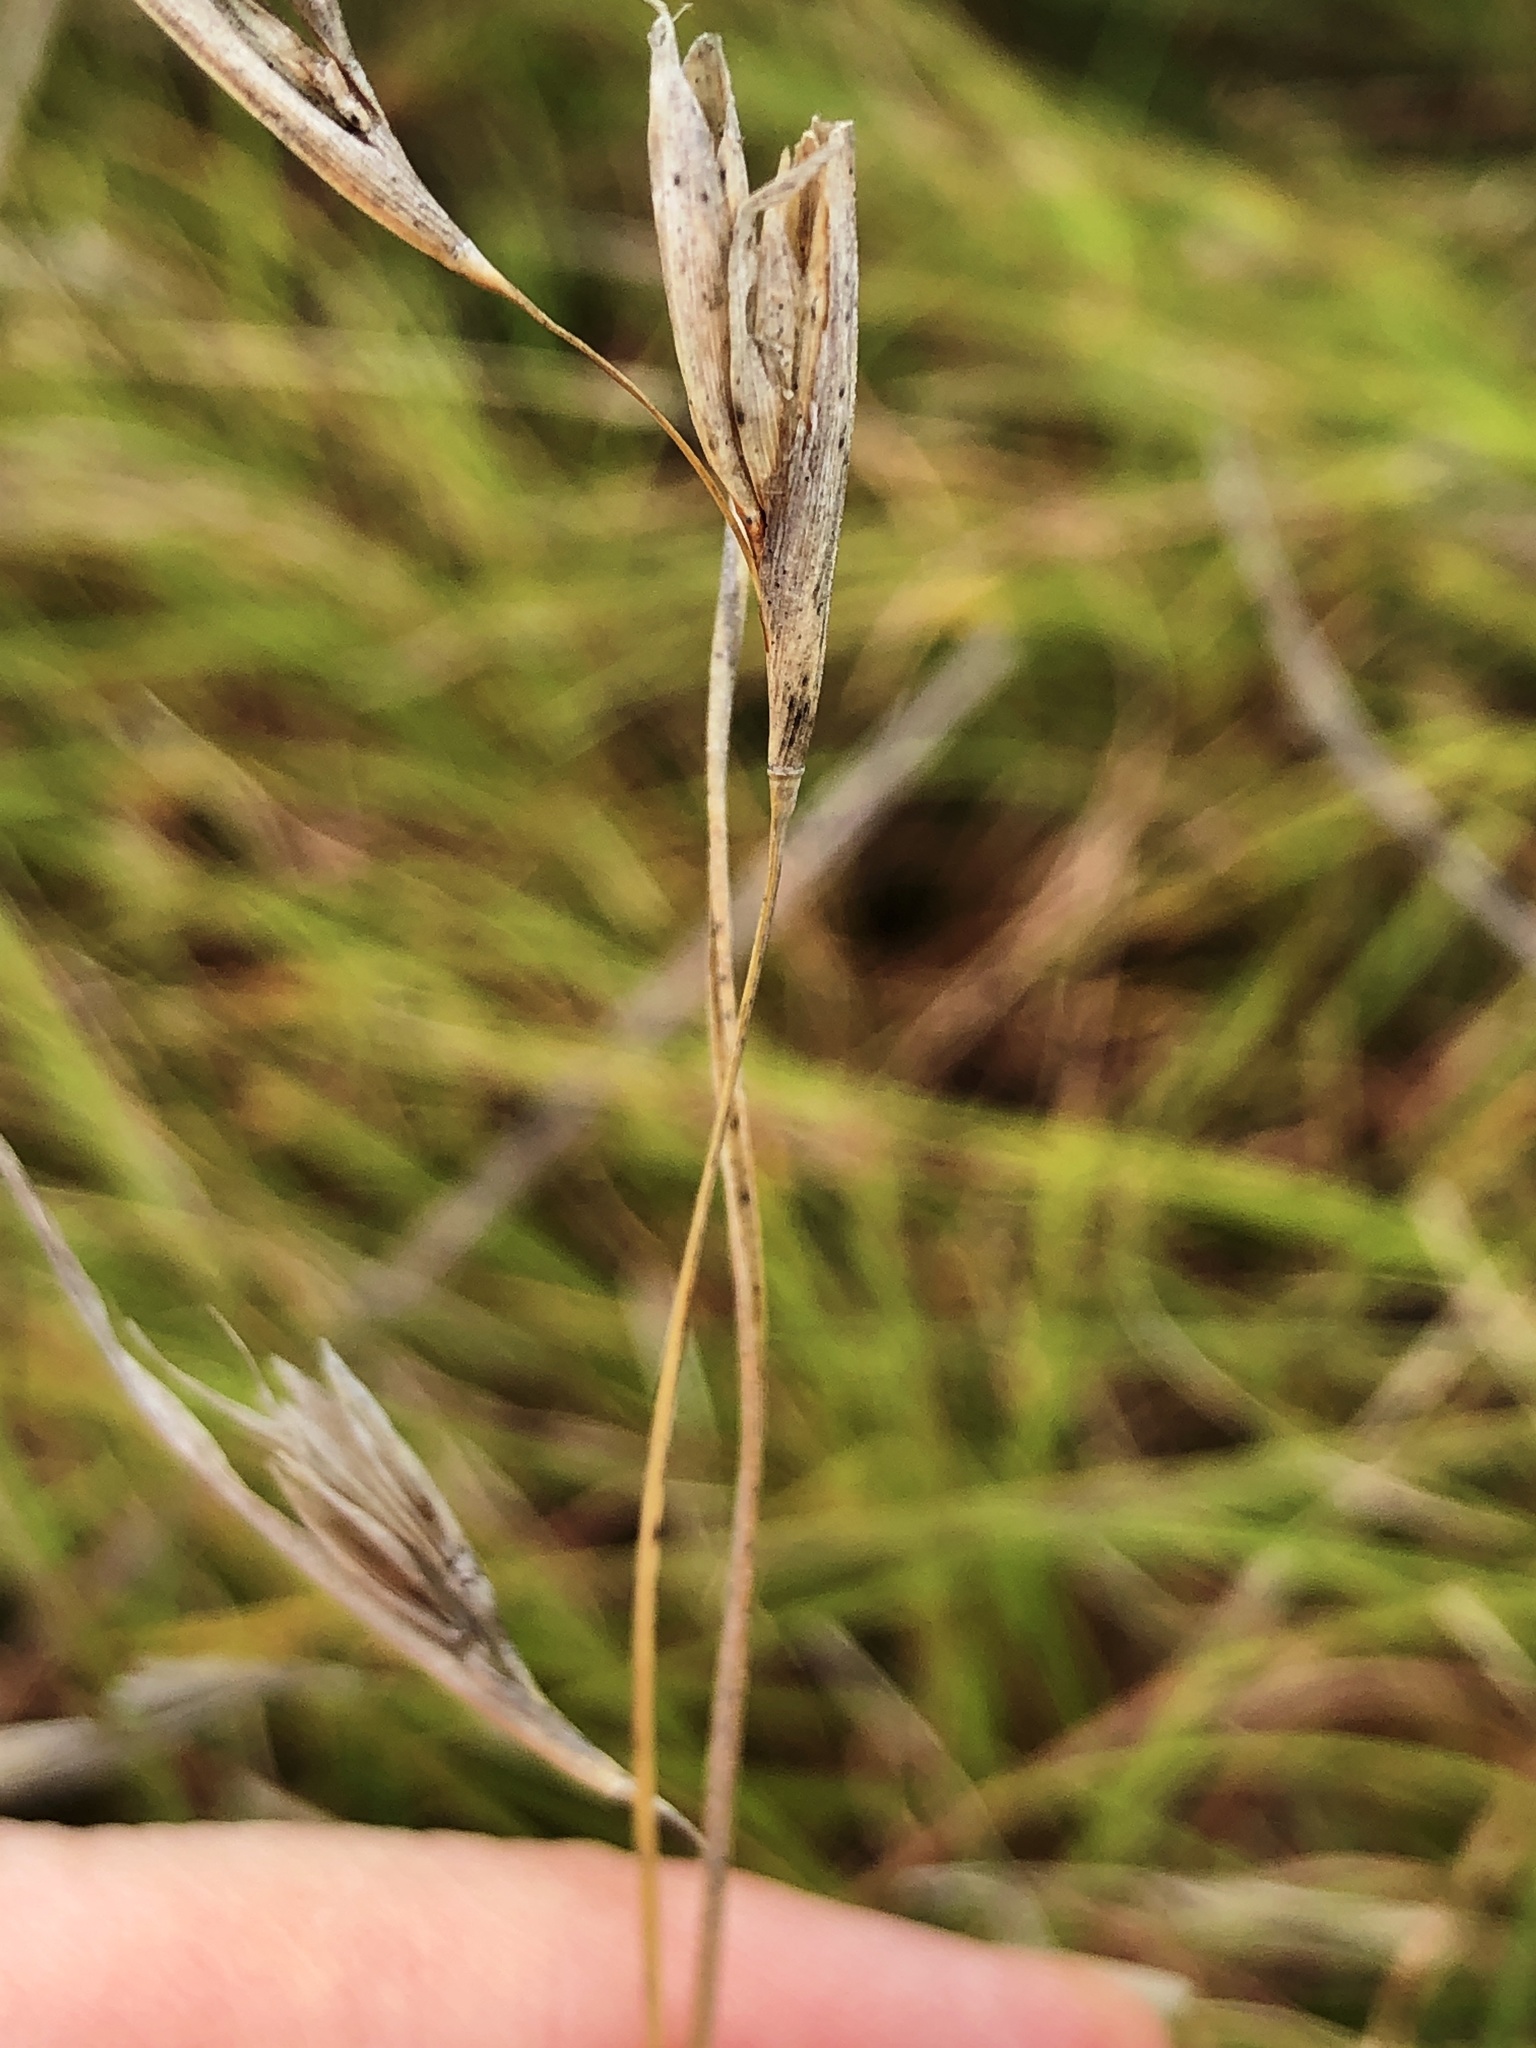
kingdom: Plantae
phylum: Tracheophyta
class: Liliopsida
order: Poales
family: Poaceae
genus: Themeda
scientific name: Themeda triandra
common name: Kangaroo grass
